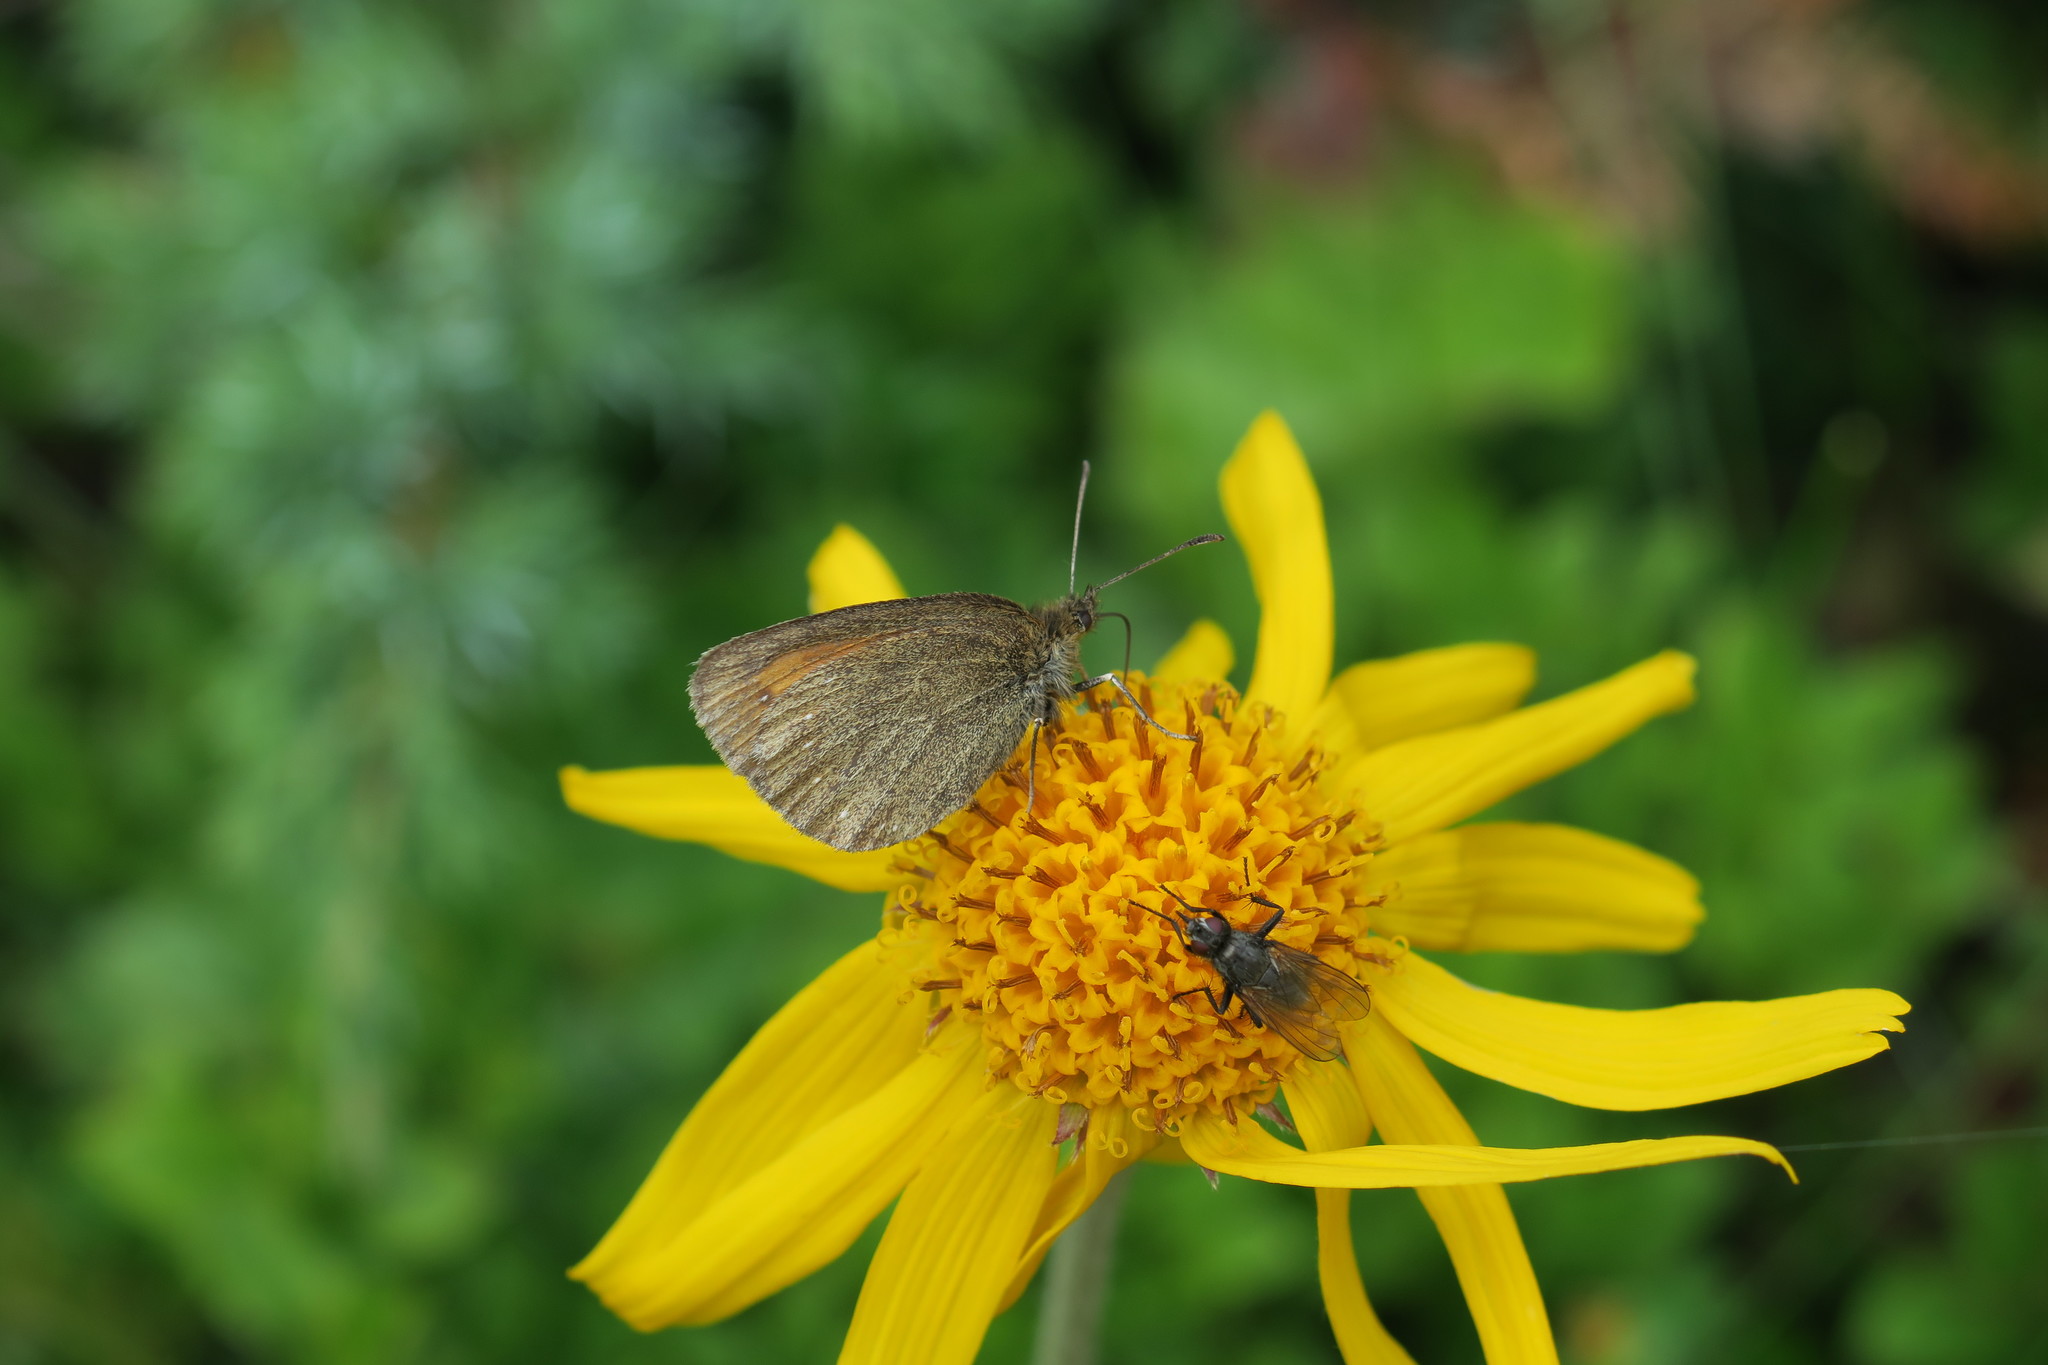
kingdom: Animalia
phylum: Arthropoda
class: Insecta
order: Lepidoptera
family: Nymphalidae
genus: Erebia
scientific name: Erebia arete
